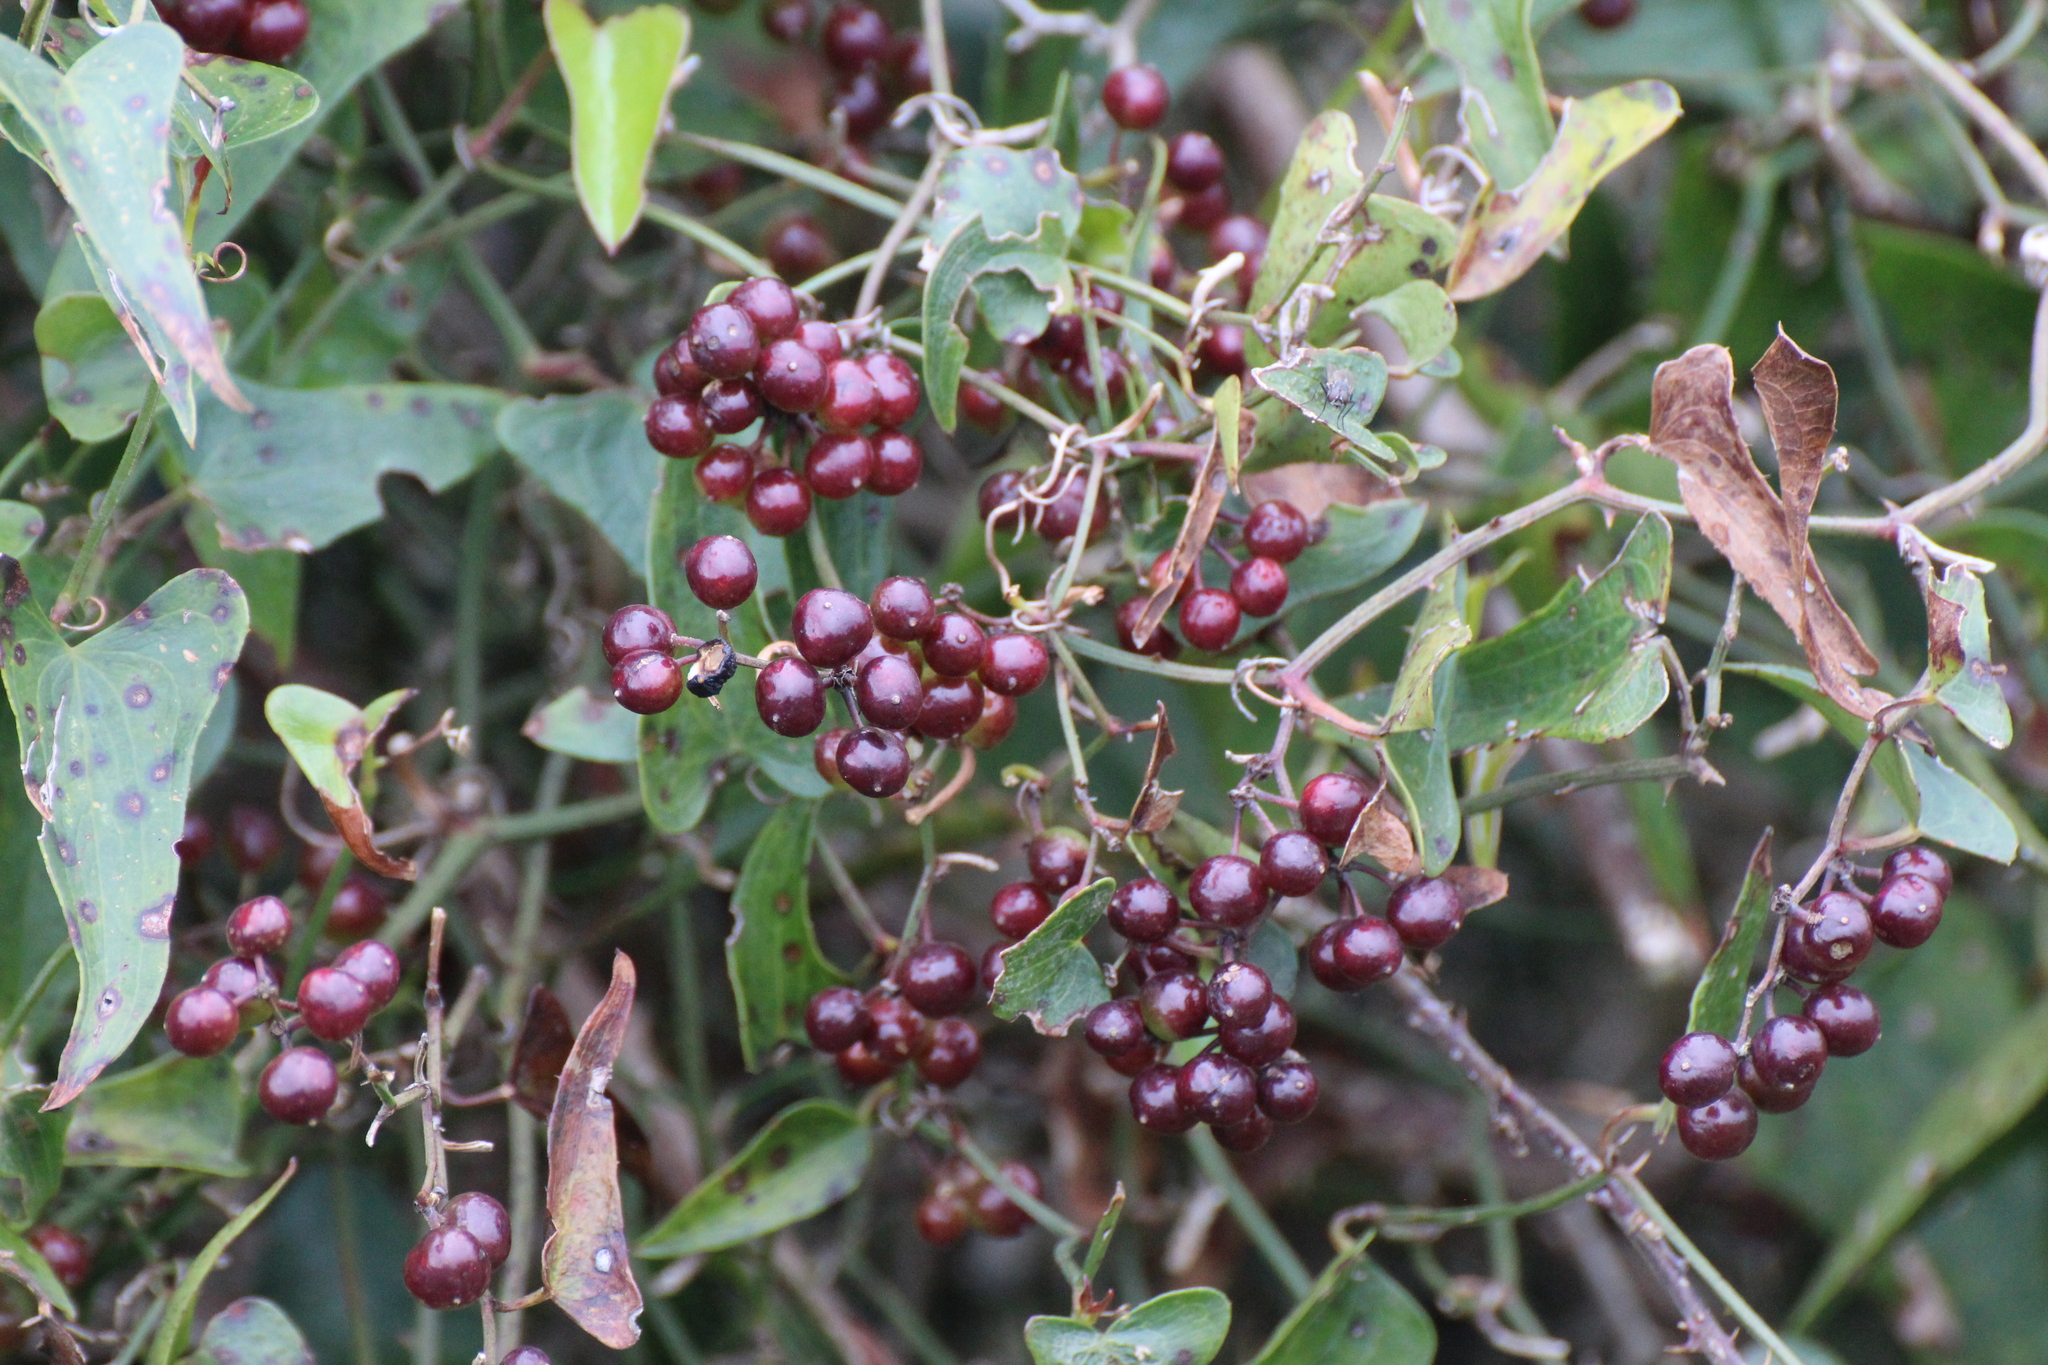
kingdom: Plantae
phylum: Tracheophyta
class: Liliopsida
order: Liliales
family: Smilacaceae
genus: Smilax
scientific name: Smilax aspera
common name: Common smilax
